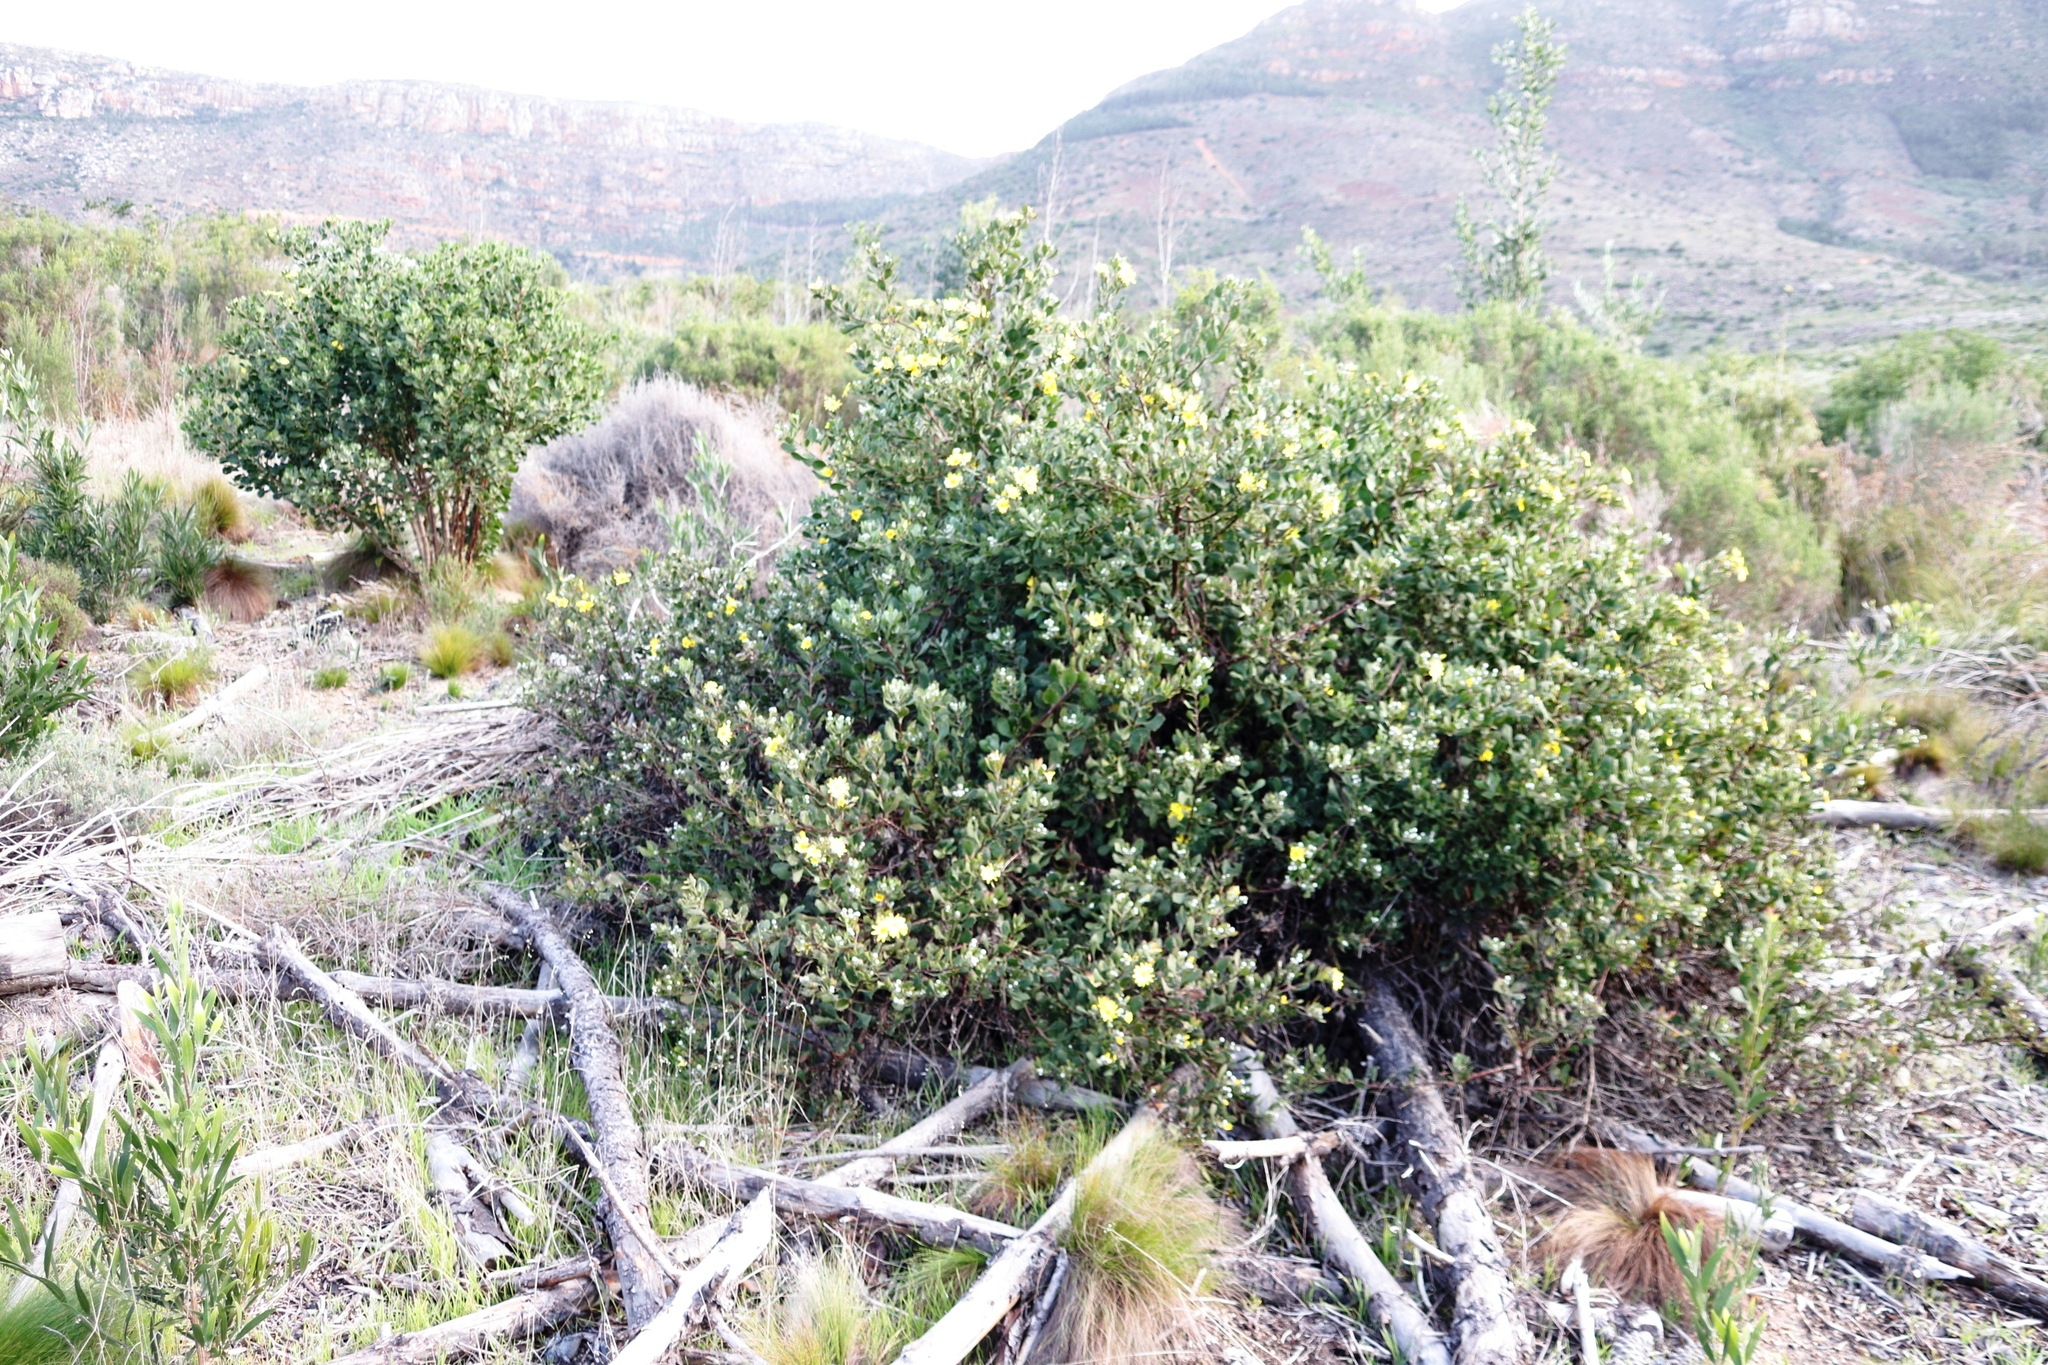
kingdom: Plantae
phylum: Tracheophyta
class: Magnoliopsida
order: Asterales
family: Asteraceae
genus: Osteospermum
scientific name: Osteospermum moniliferum
